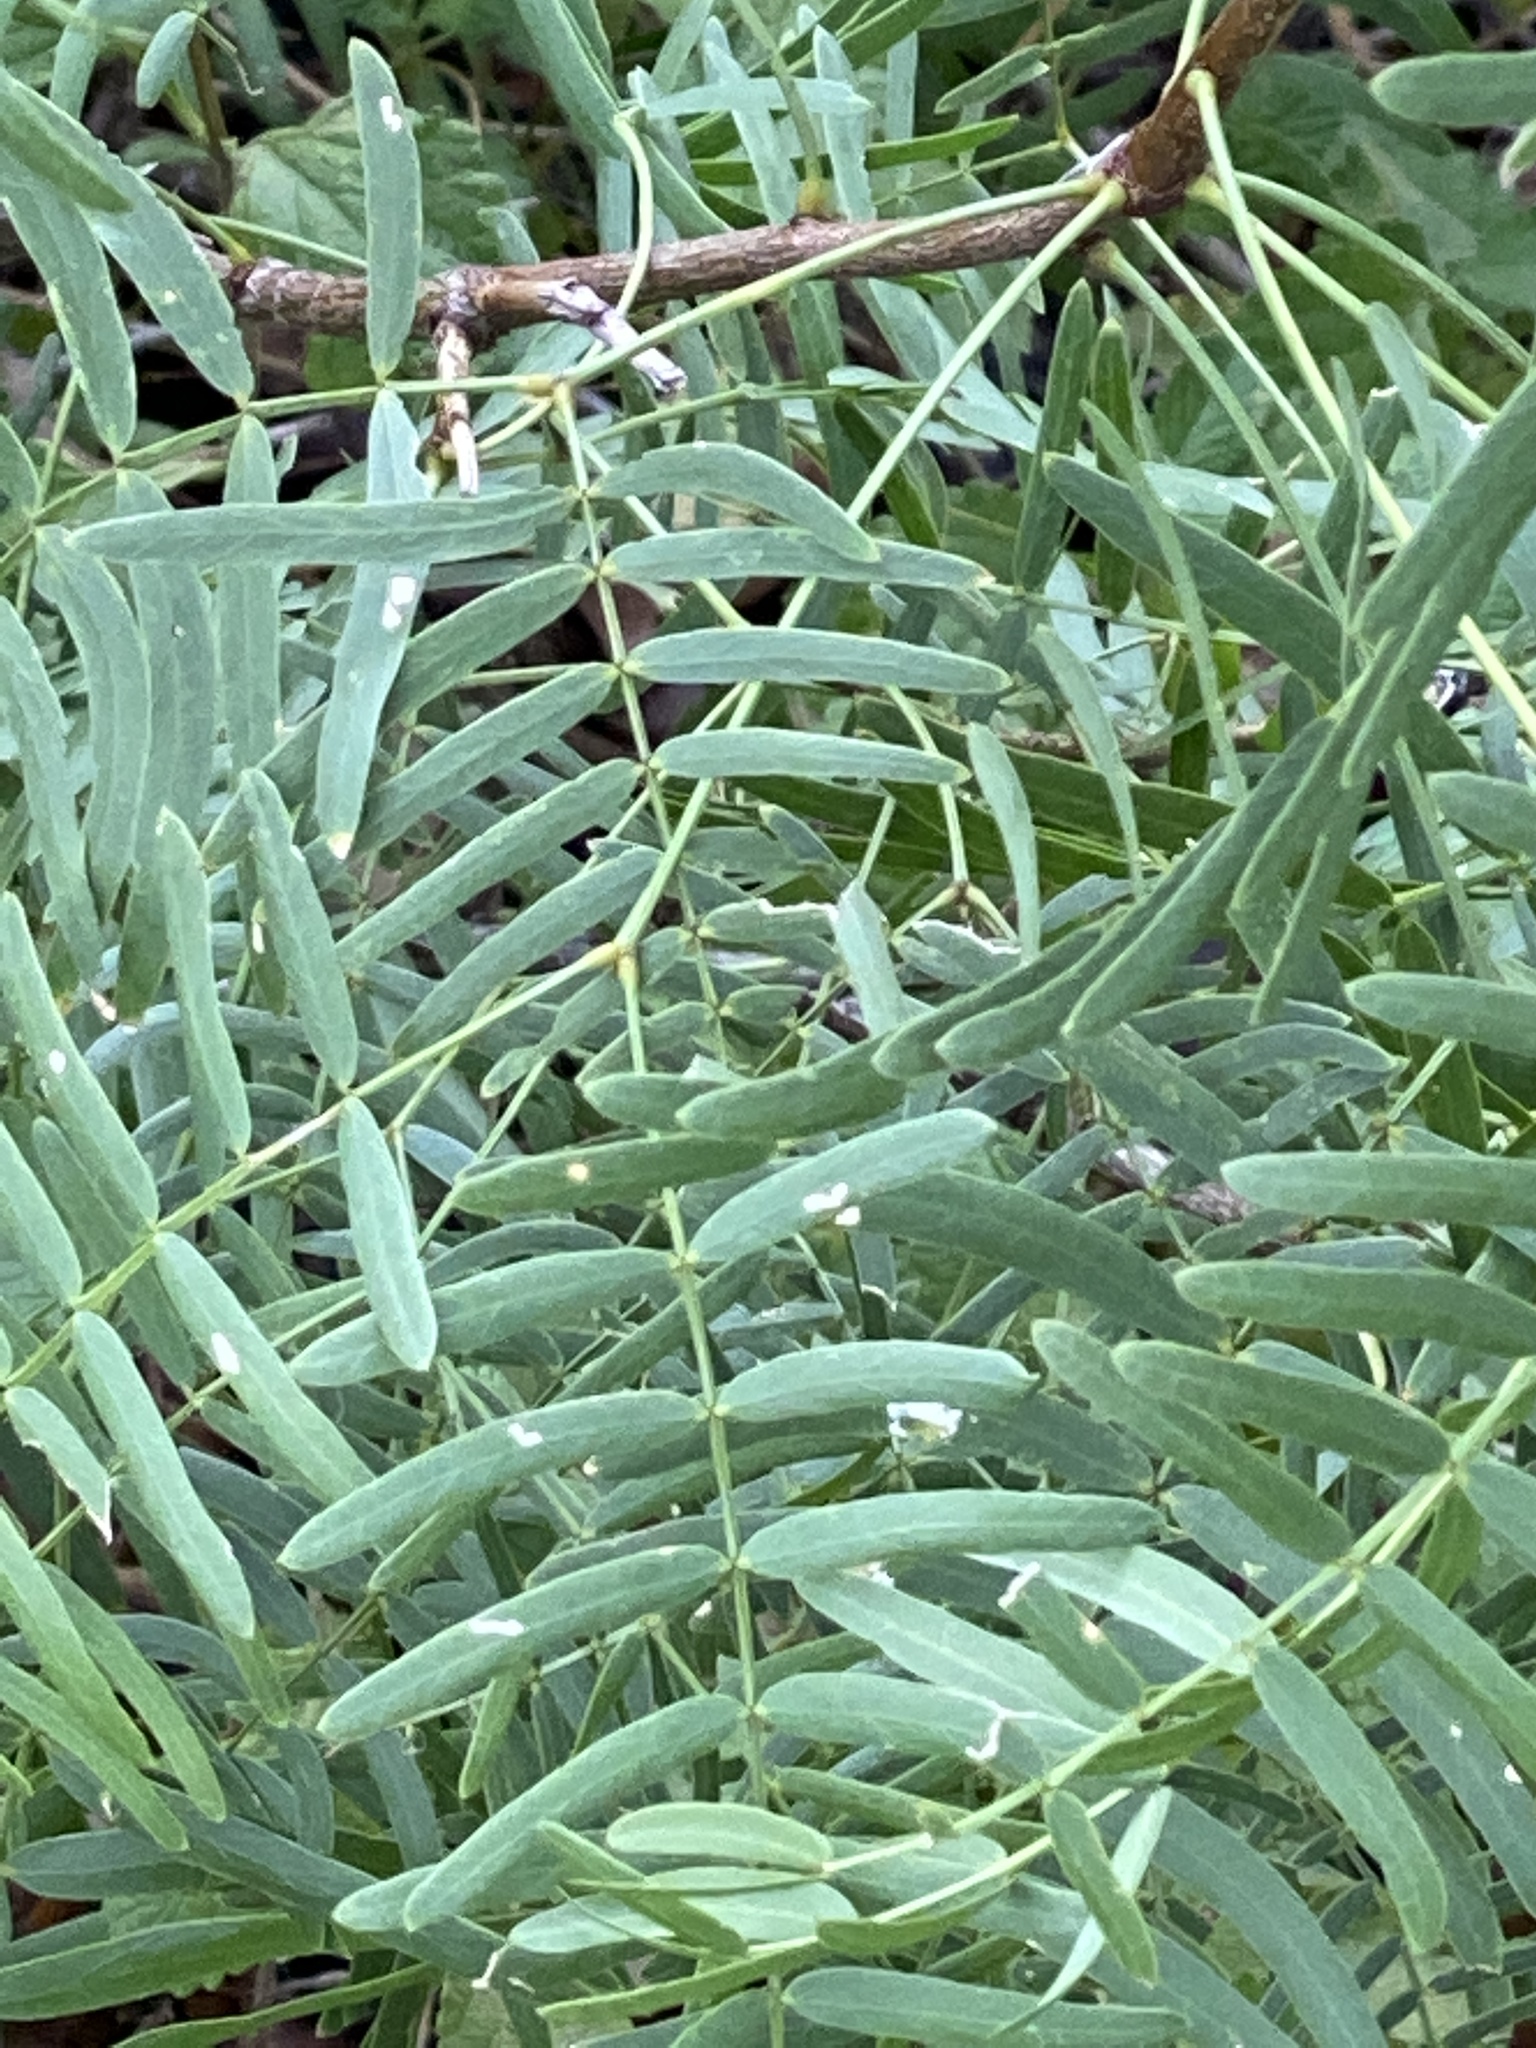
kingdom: Plantae
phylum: Tracheophyta
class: Magnoliopsida
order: Fabales
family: Fabaceae
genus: Prosopis
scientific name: Prosopis glandulosa
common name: Honey mesquite
